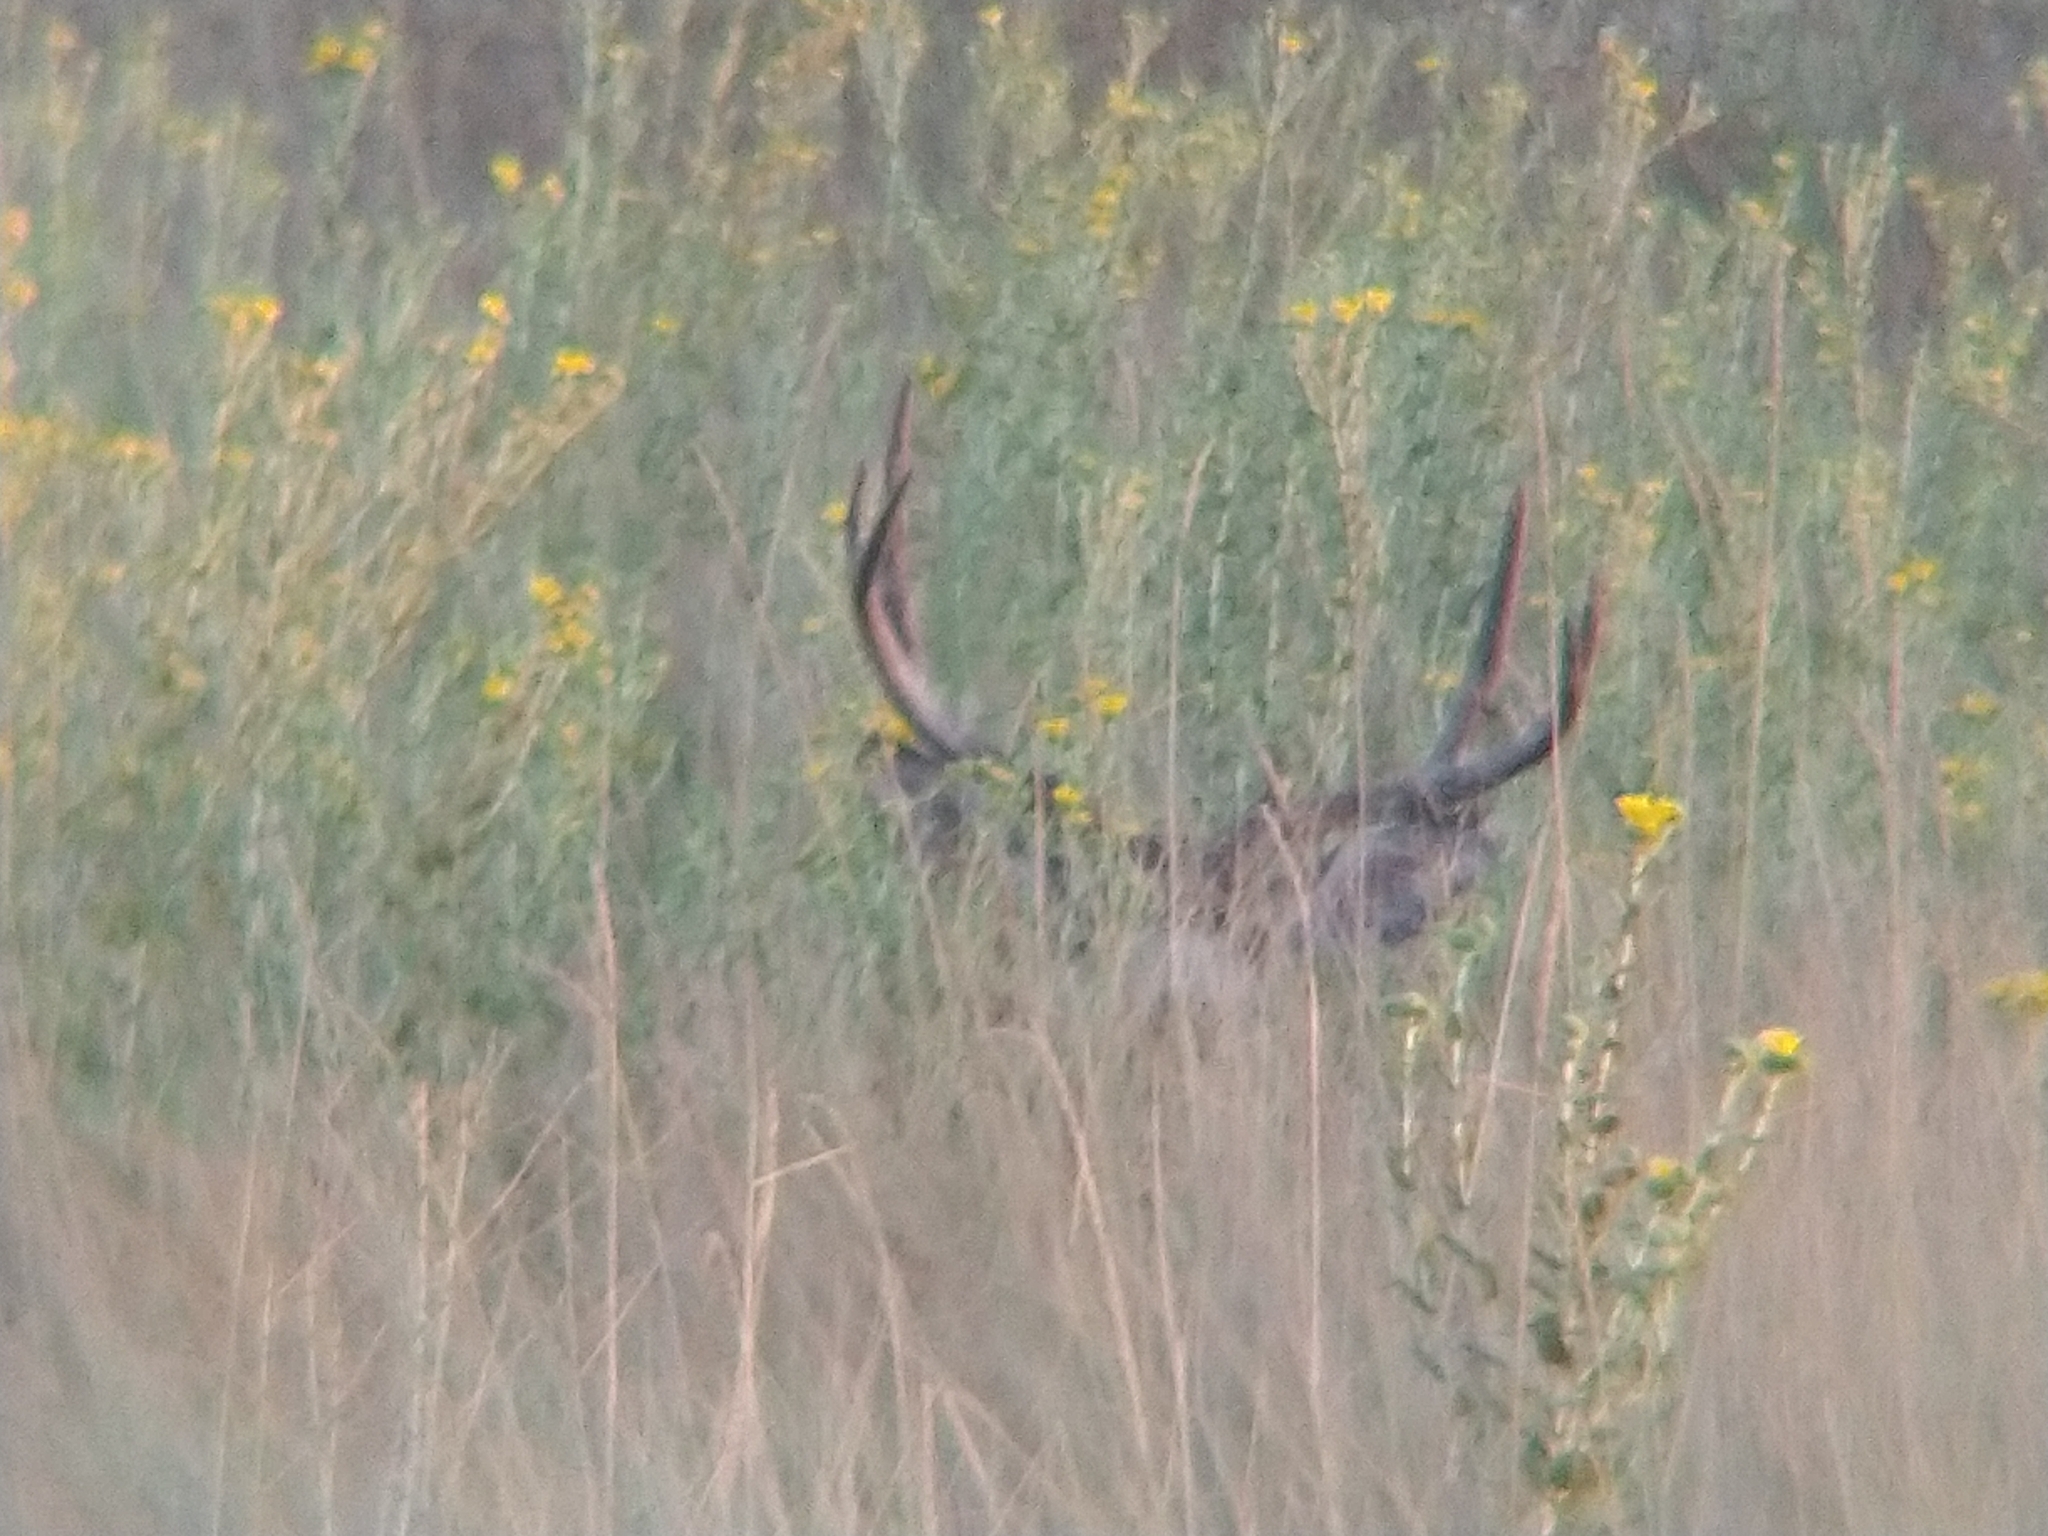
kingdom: Animalia
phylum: Chordata
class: Mammalia
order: Artiodactyla
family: Cervidae
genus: Odocoileus
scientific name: Odocoileus hemionus
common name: Mule deer
